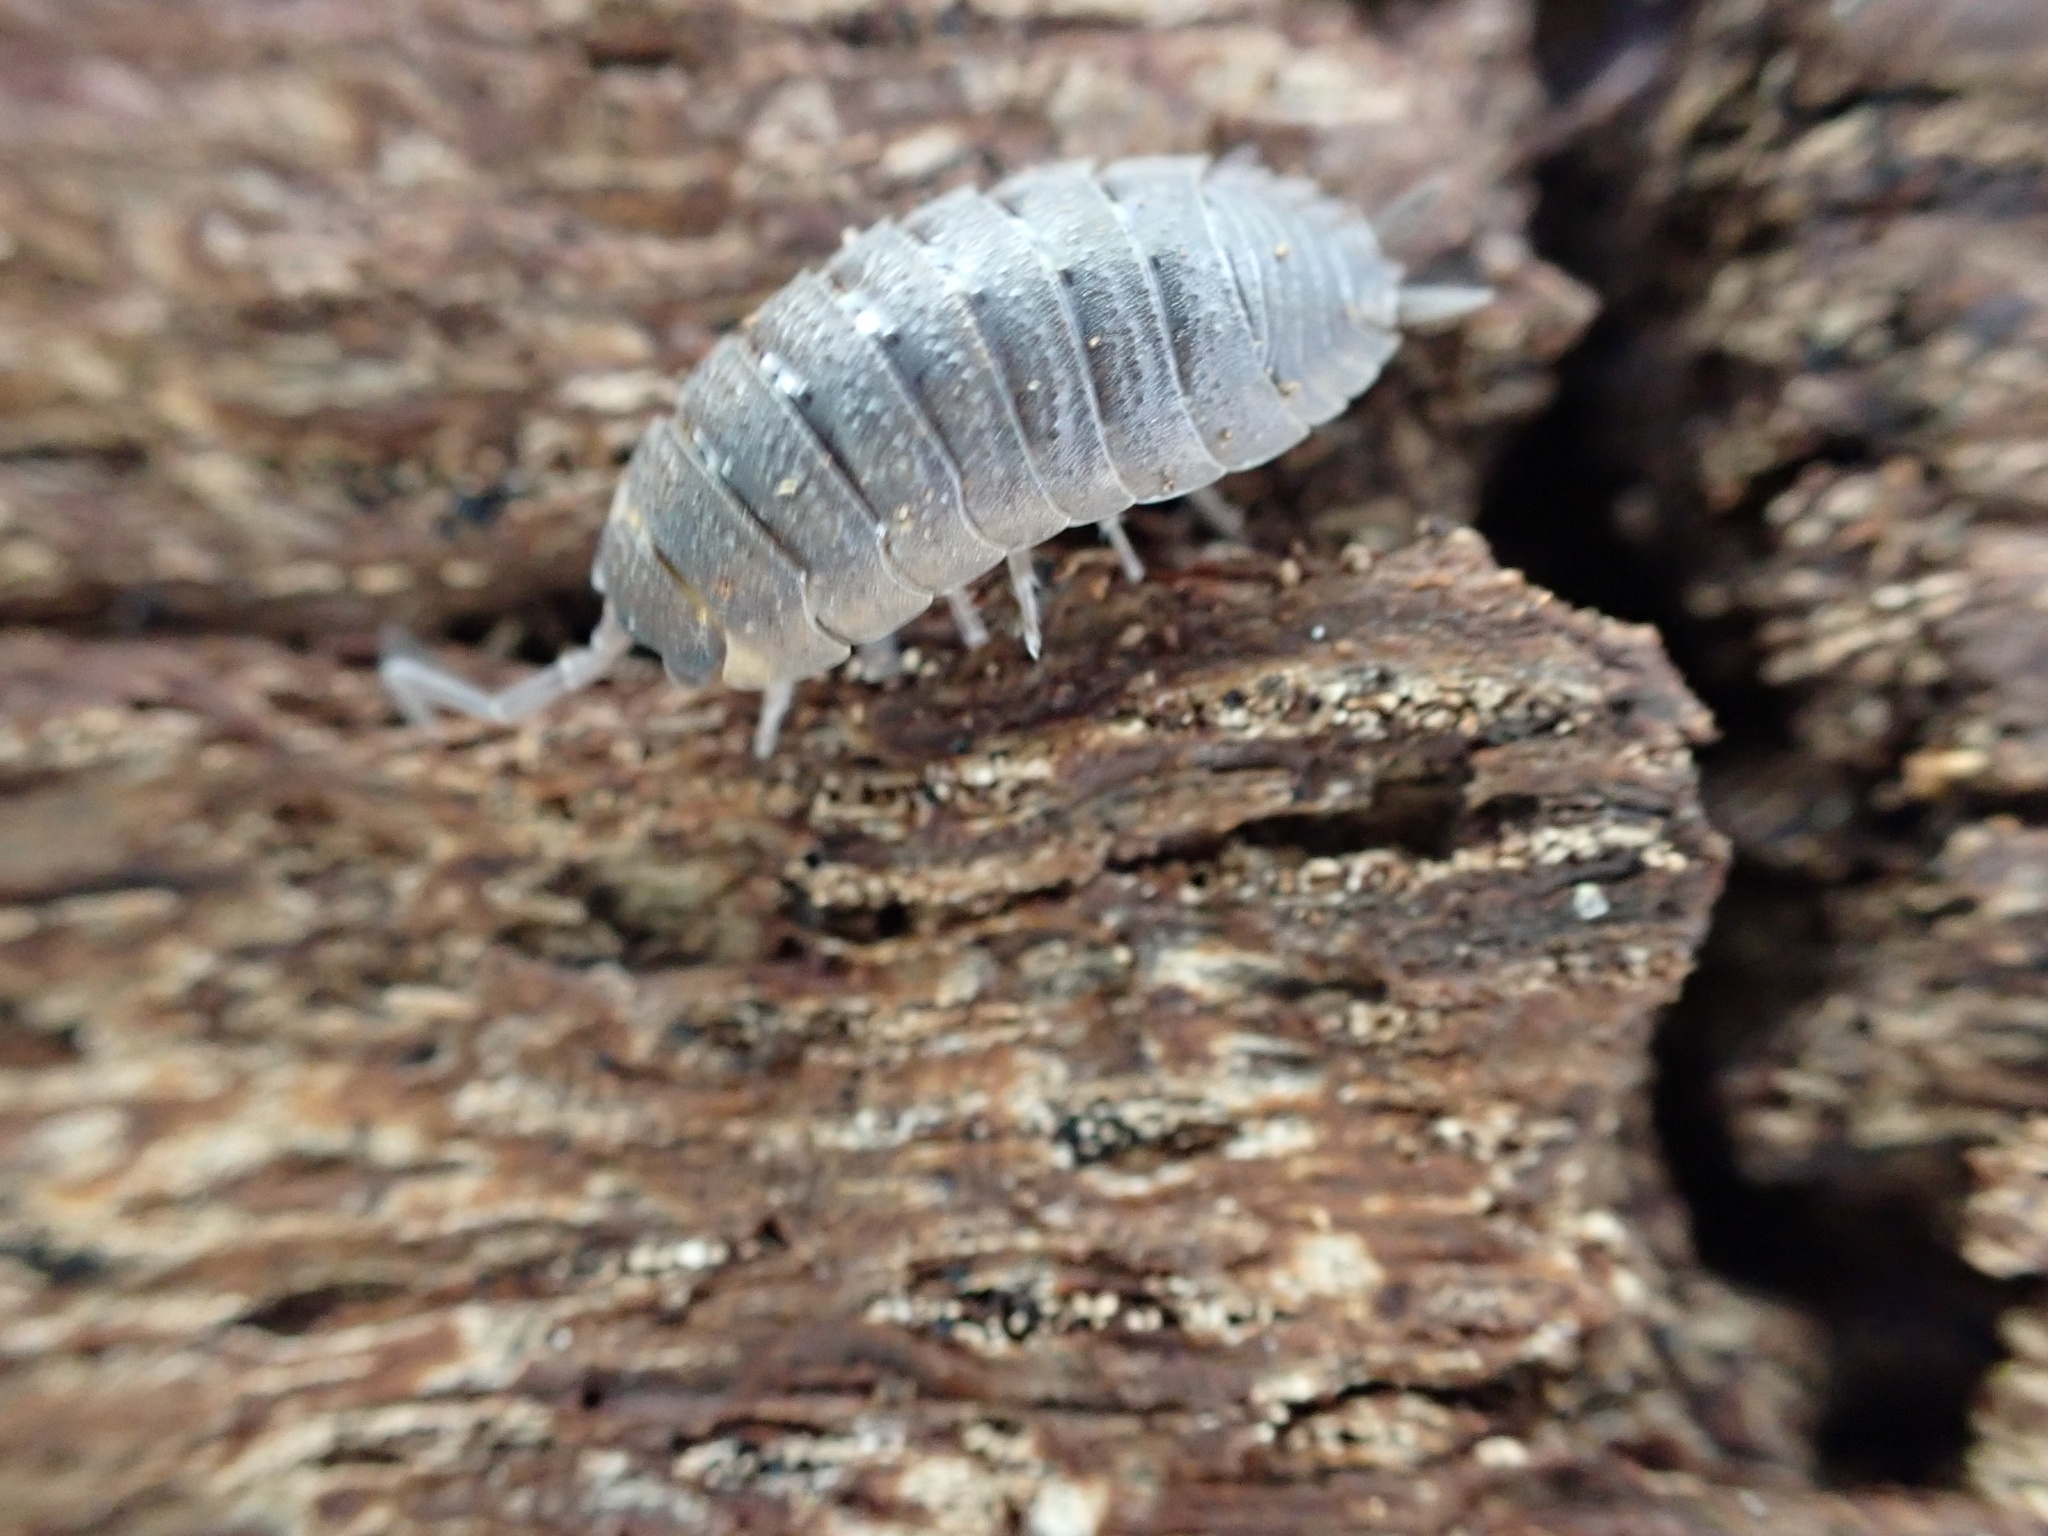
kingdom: Animalia
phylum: Arthropoda
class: Malacostraca
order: Isopoda
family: Porcellionidae
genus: Porcellio
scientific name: Porcellio scaber
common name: Common rough woodlouse
